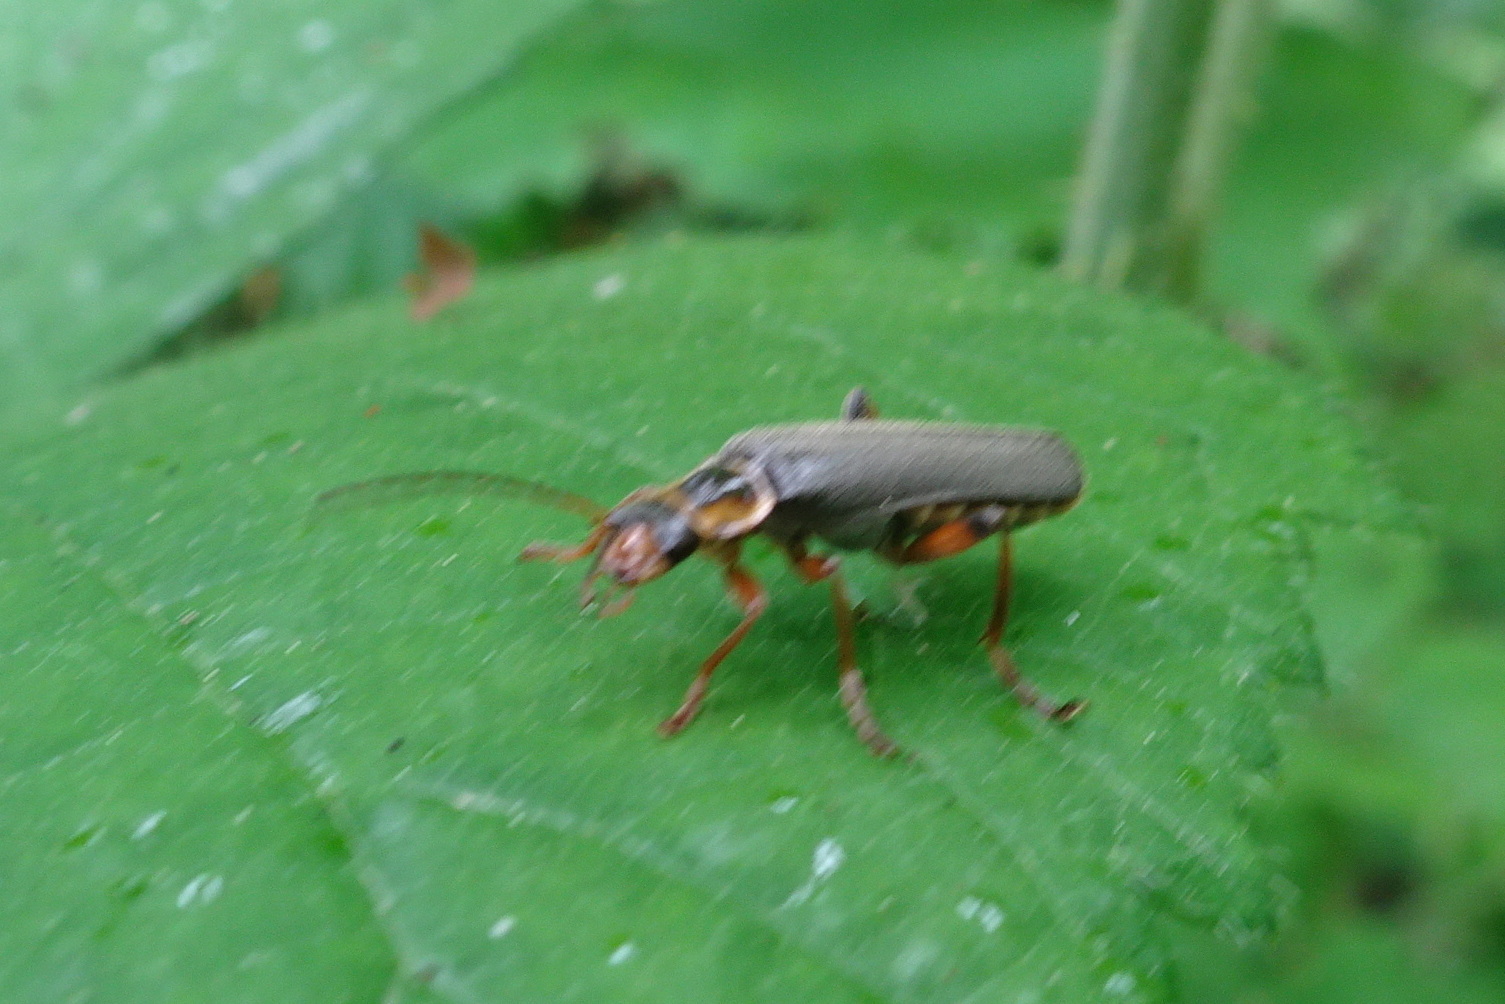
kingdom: Animalia
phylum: Arthropoda
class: Insecta
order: Coleoptera
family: Cantharidae
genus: Cantharis
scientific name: Cantharis nigricans
